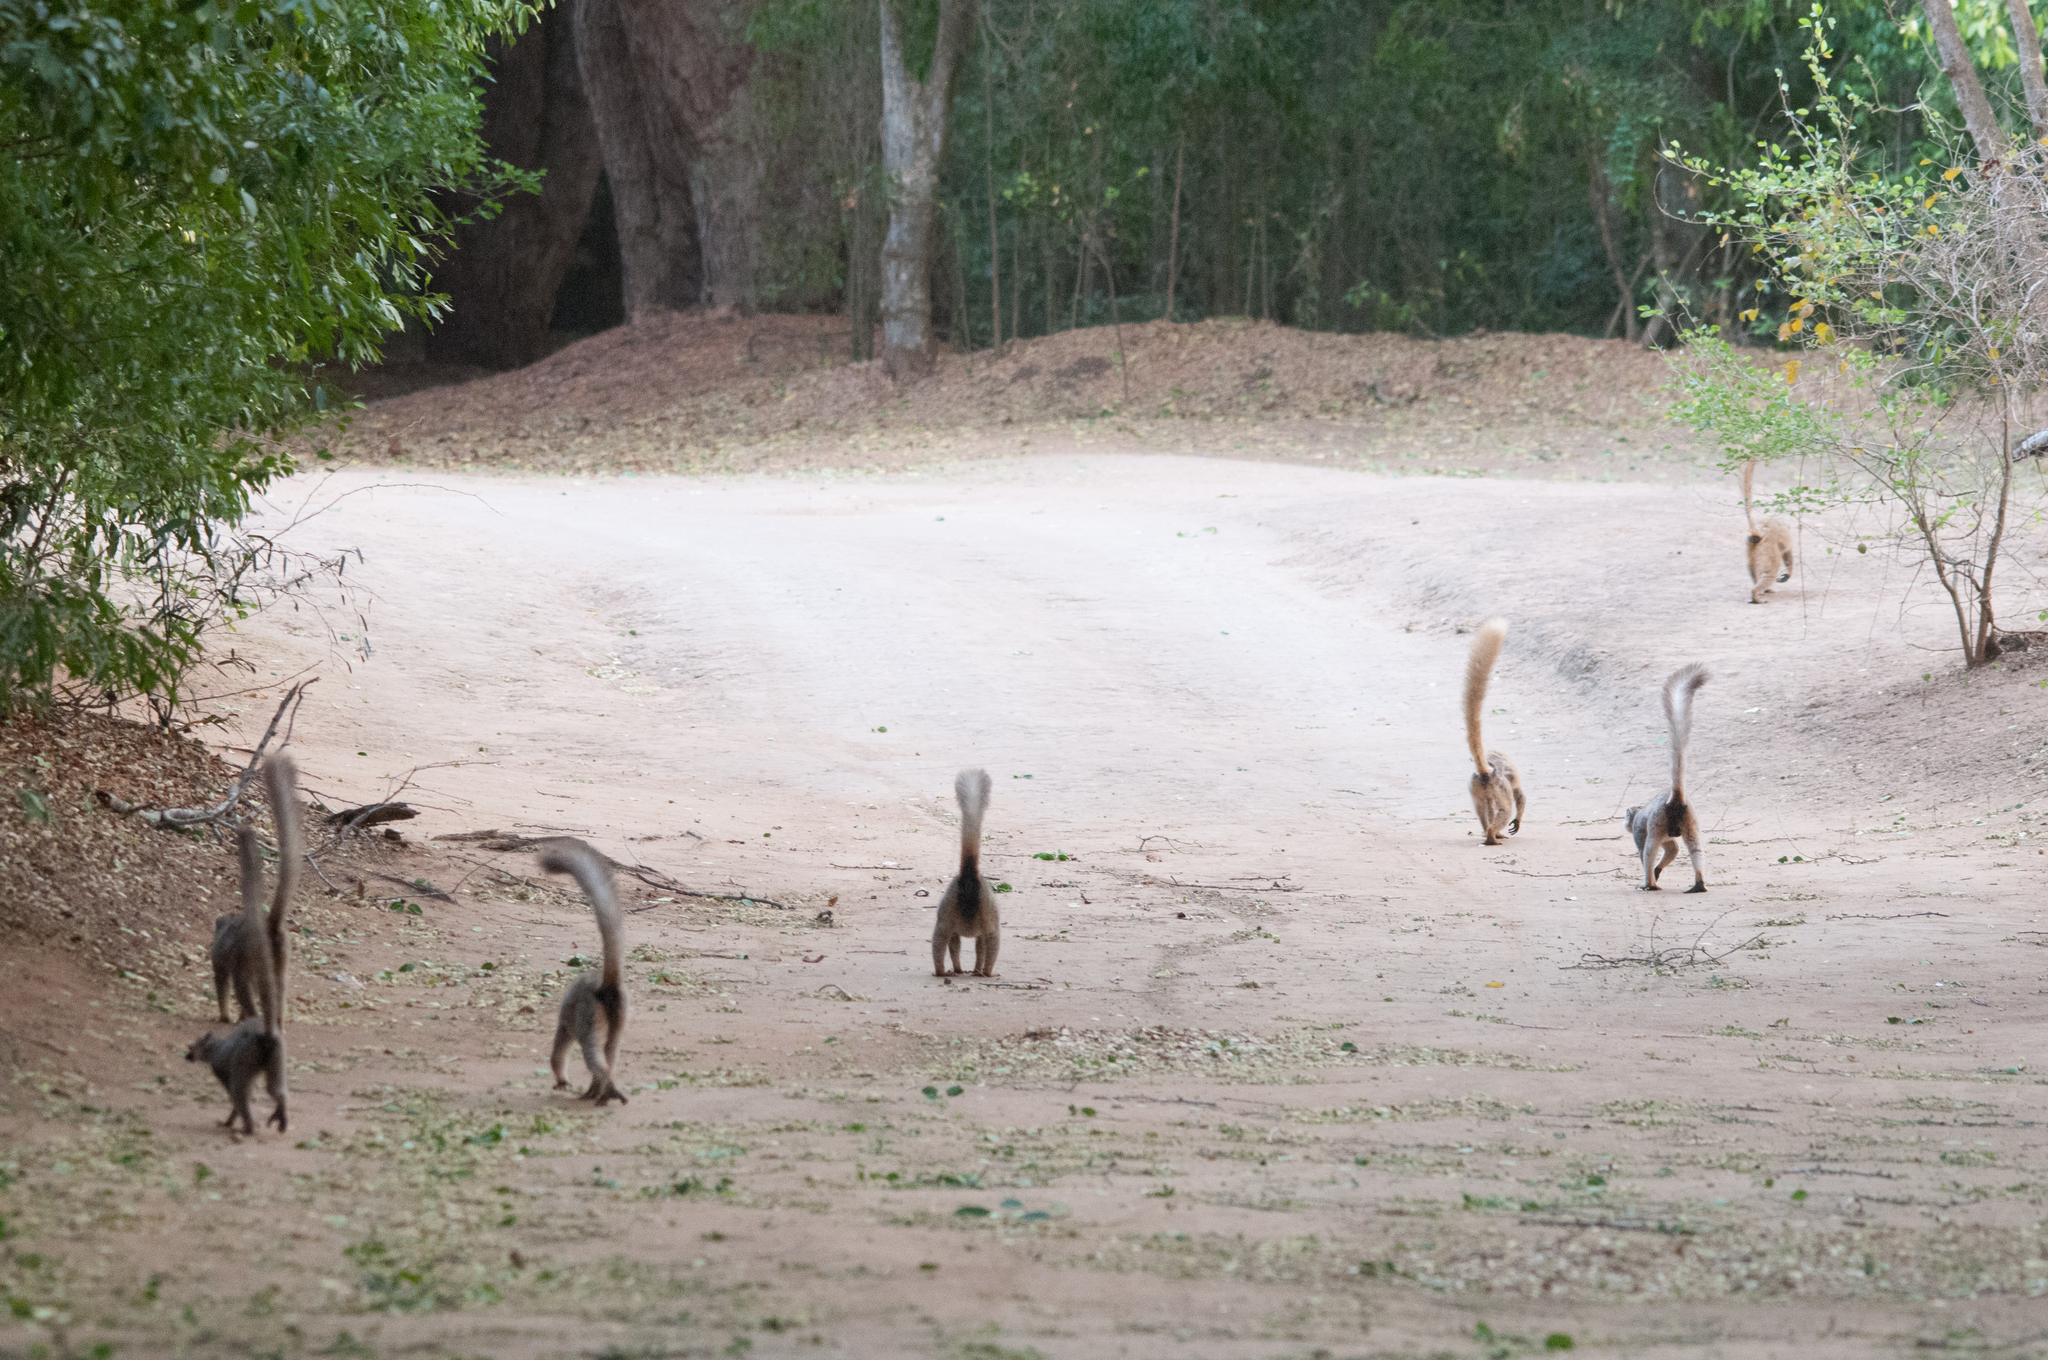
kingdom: Animalia
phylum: Chordata
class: Mammalia
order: Primates
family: Lemuridae
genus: Eulemur
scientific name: Eulemur
